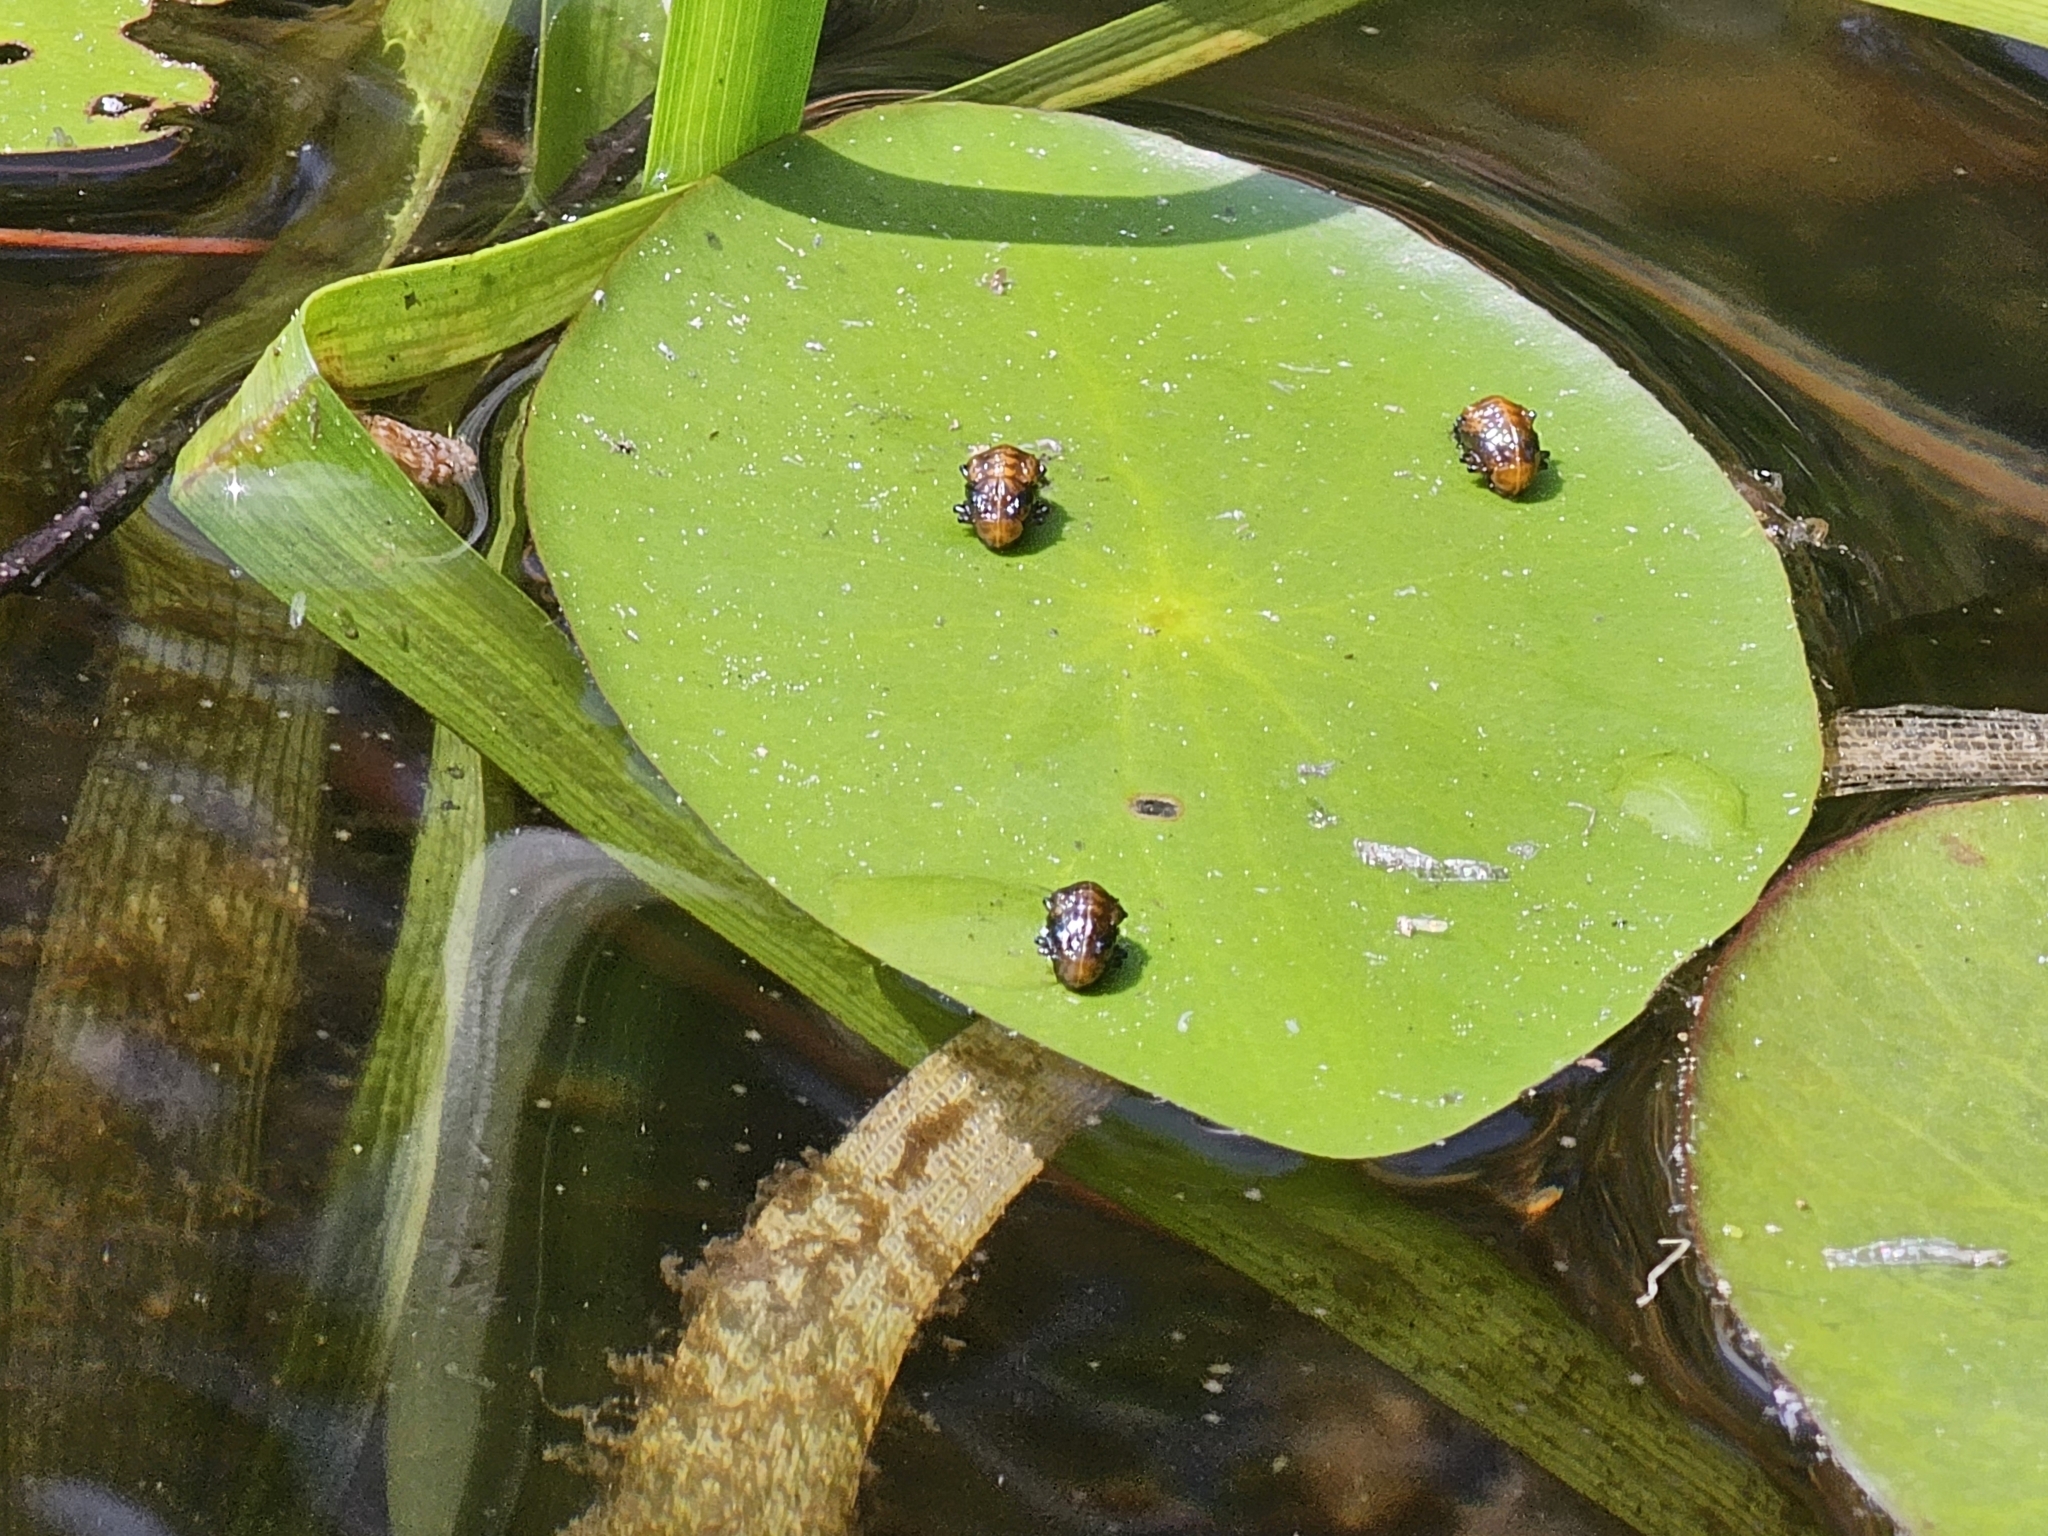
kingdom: Animalia
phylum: Arthropoda
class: Insecta
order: Coleoptera
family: Chrysomelidae
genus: Galerucella
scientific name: Galerucella nymphaeae
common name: Leaf beetle
